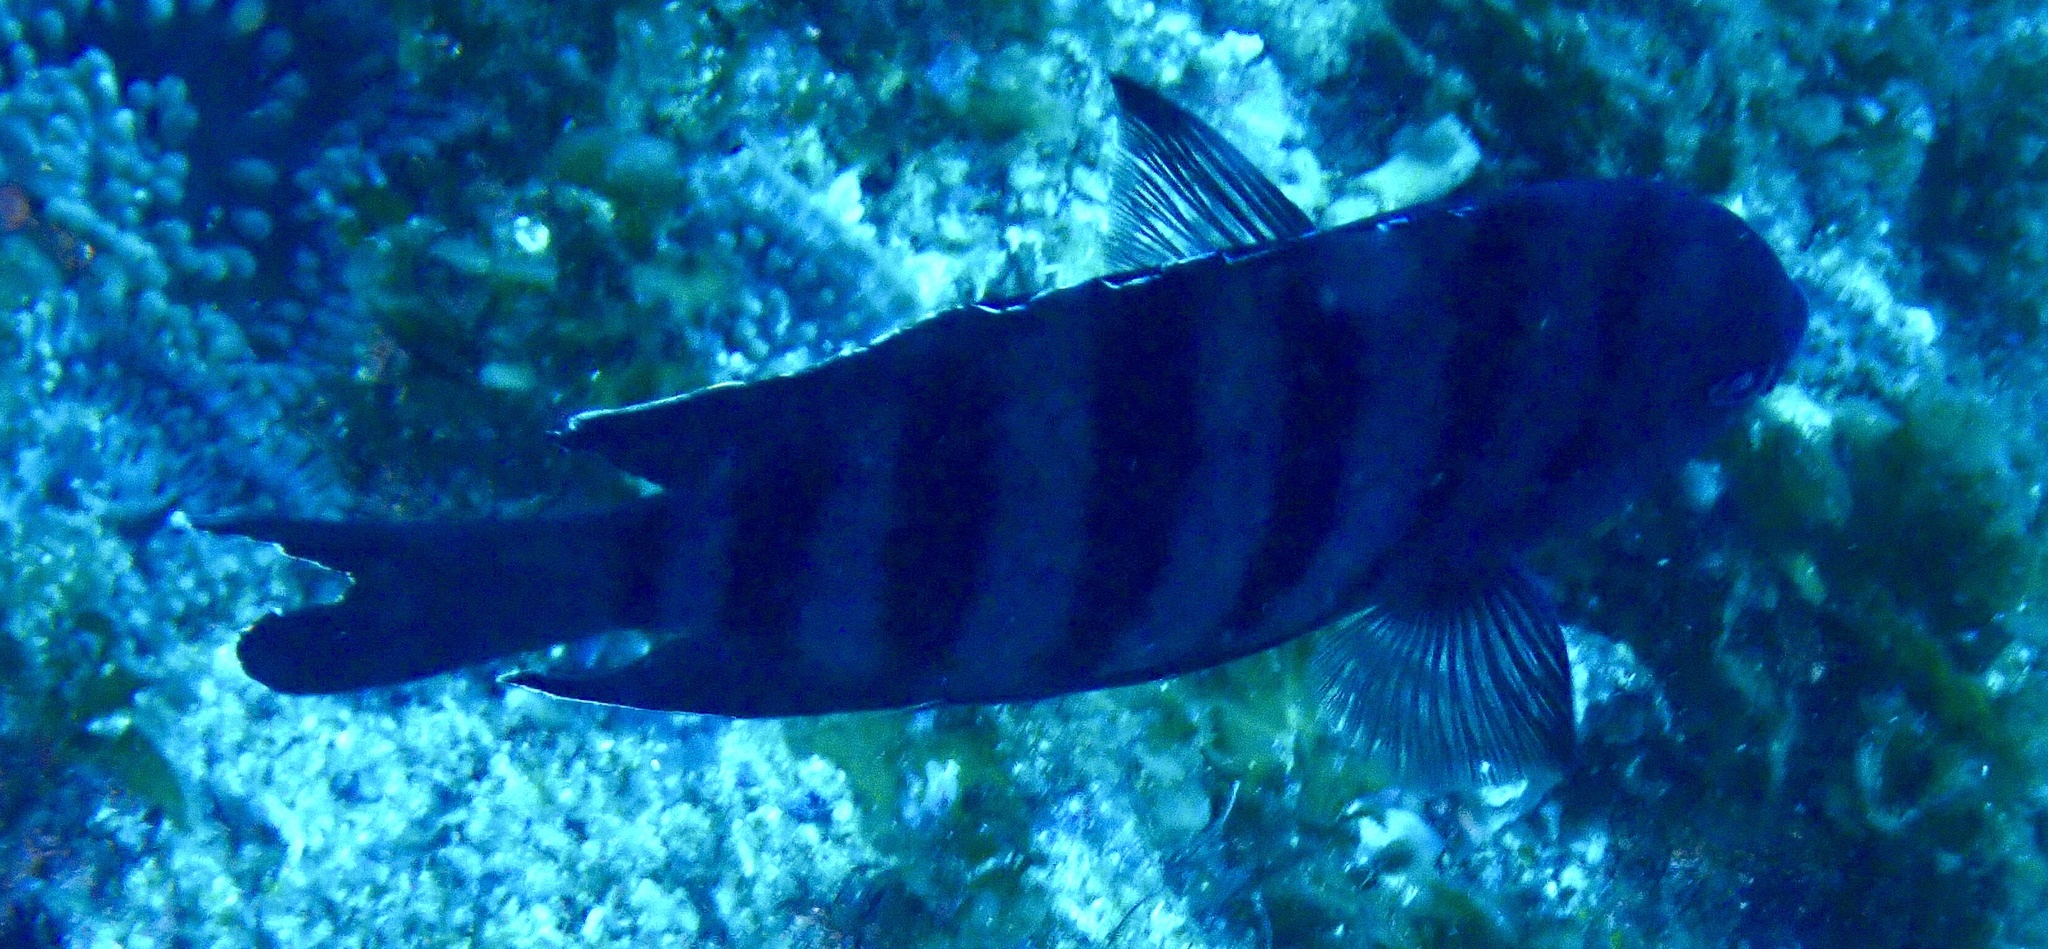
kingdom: Animalia
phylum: Chordata
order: Perciformes
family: Pomacentridae
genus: Abudefduf
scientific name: Abudefduf bengalensis
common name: Bengal sergeant
